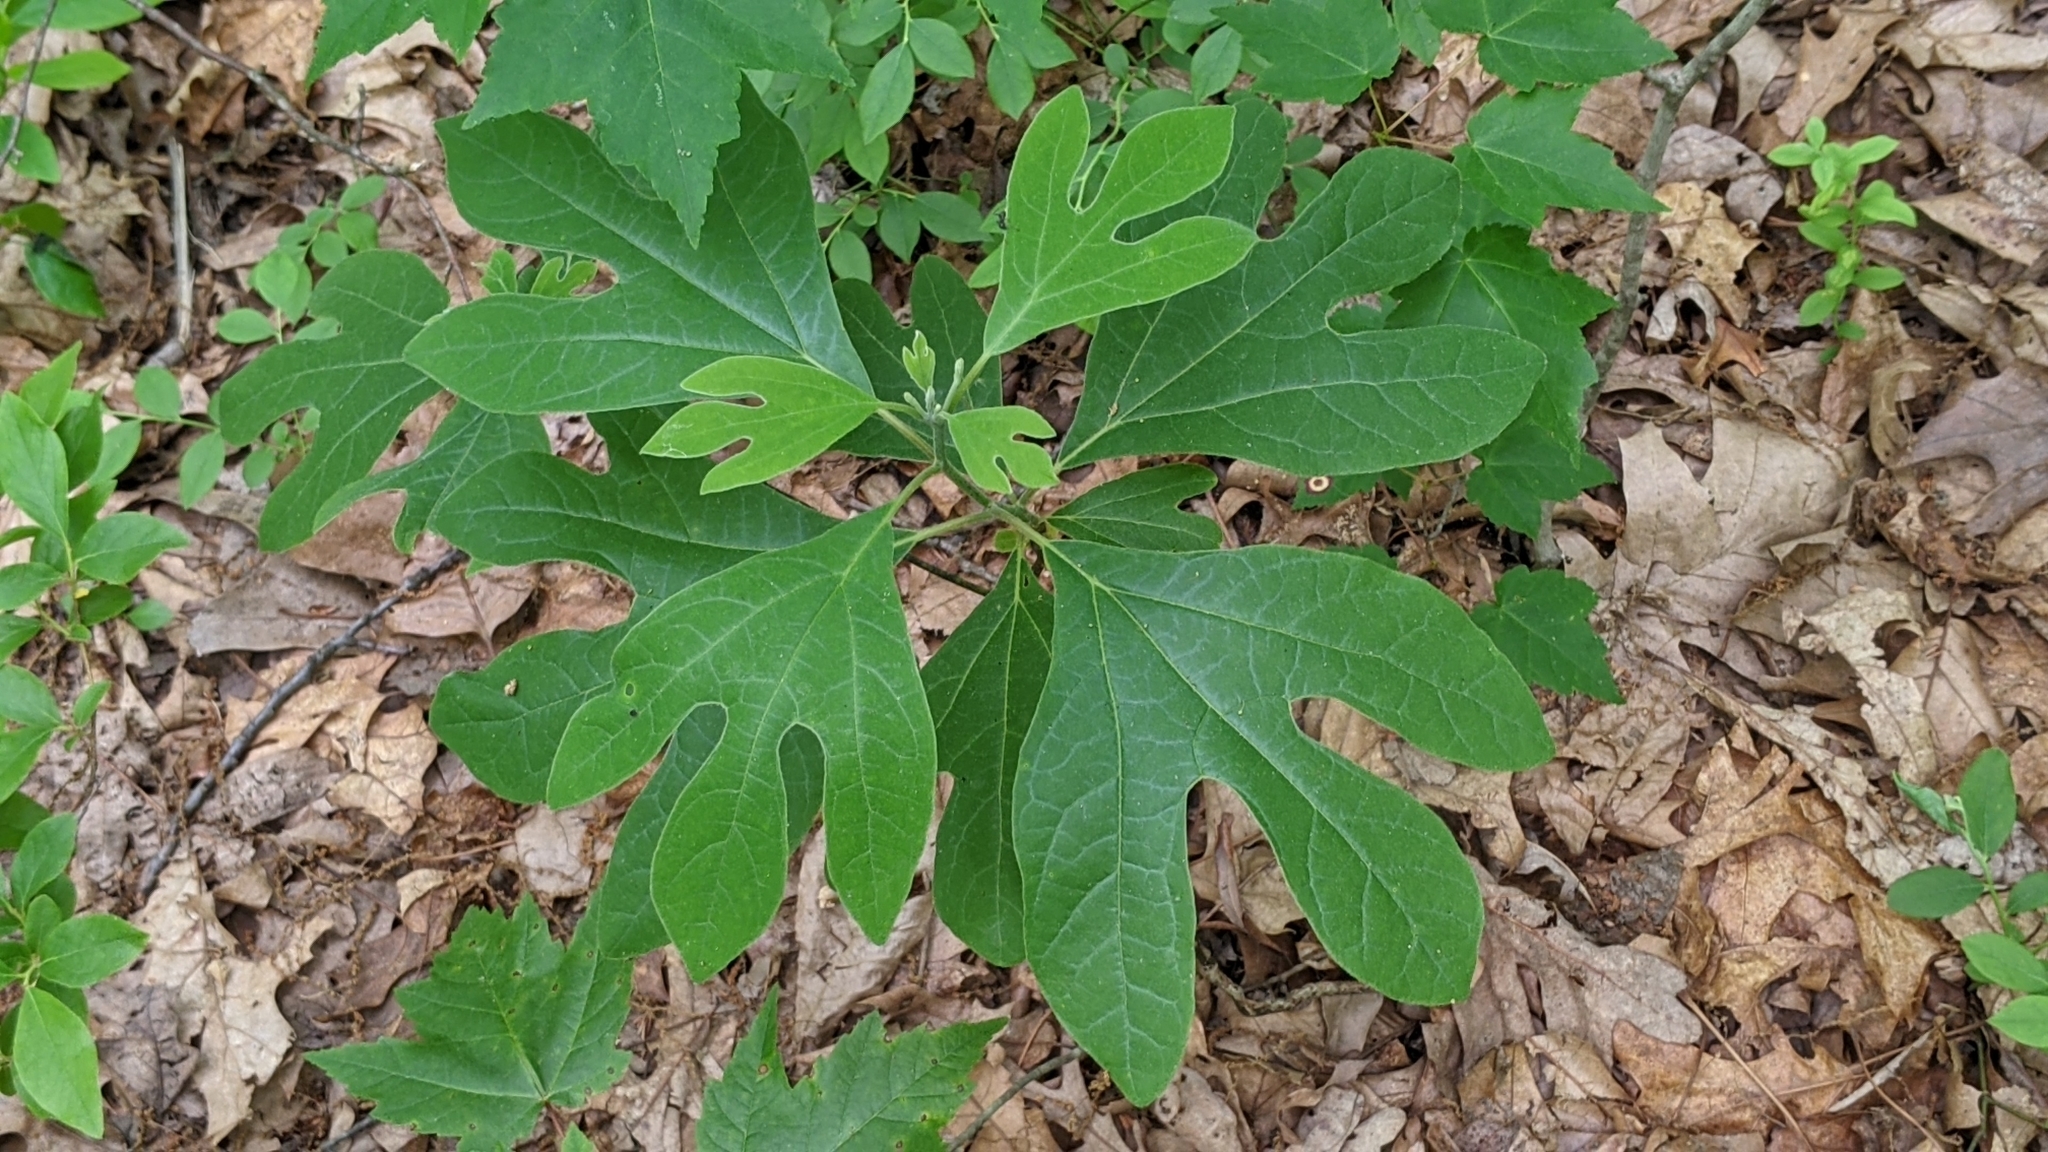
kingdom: Plantae
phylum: Tracheophyta
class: Magnoliopsida
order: Laurales
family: Lauraceae
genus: Sassafras
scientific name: Sassafras albidum
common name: Sassafras
